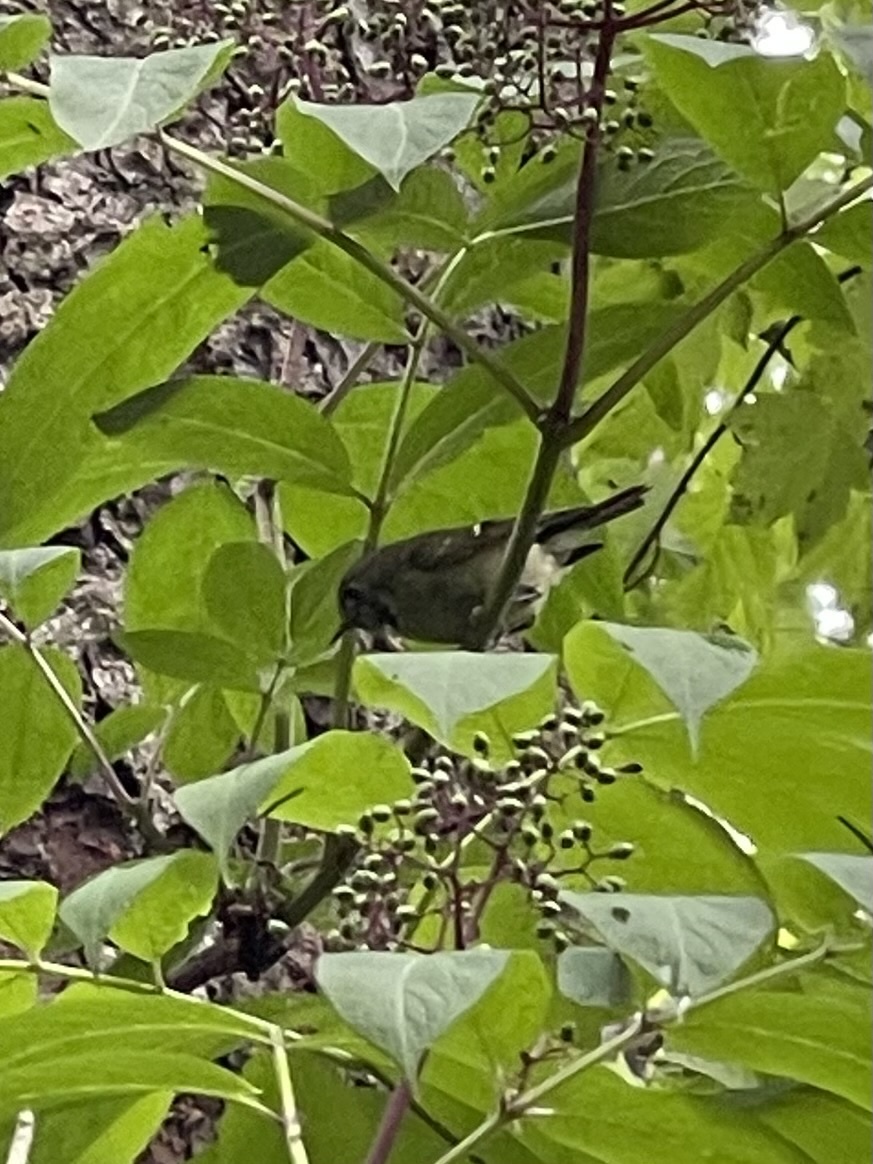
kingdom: Animalia
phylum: Chordata
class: Aves
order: Passeriformes
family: Regulidae
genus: Regulus
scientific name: Regulus calendula
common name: Ruby-crowned kinglet
